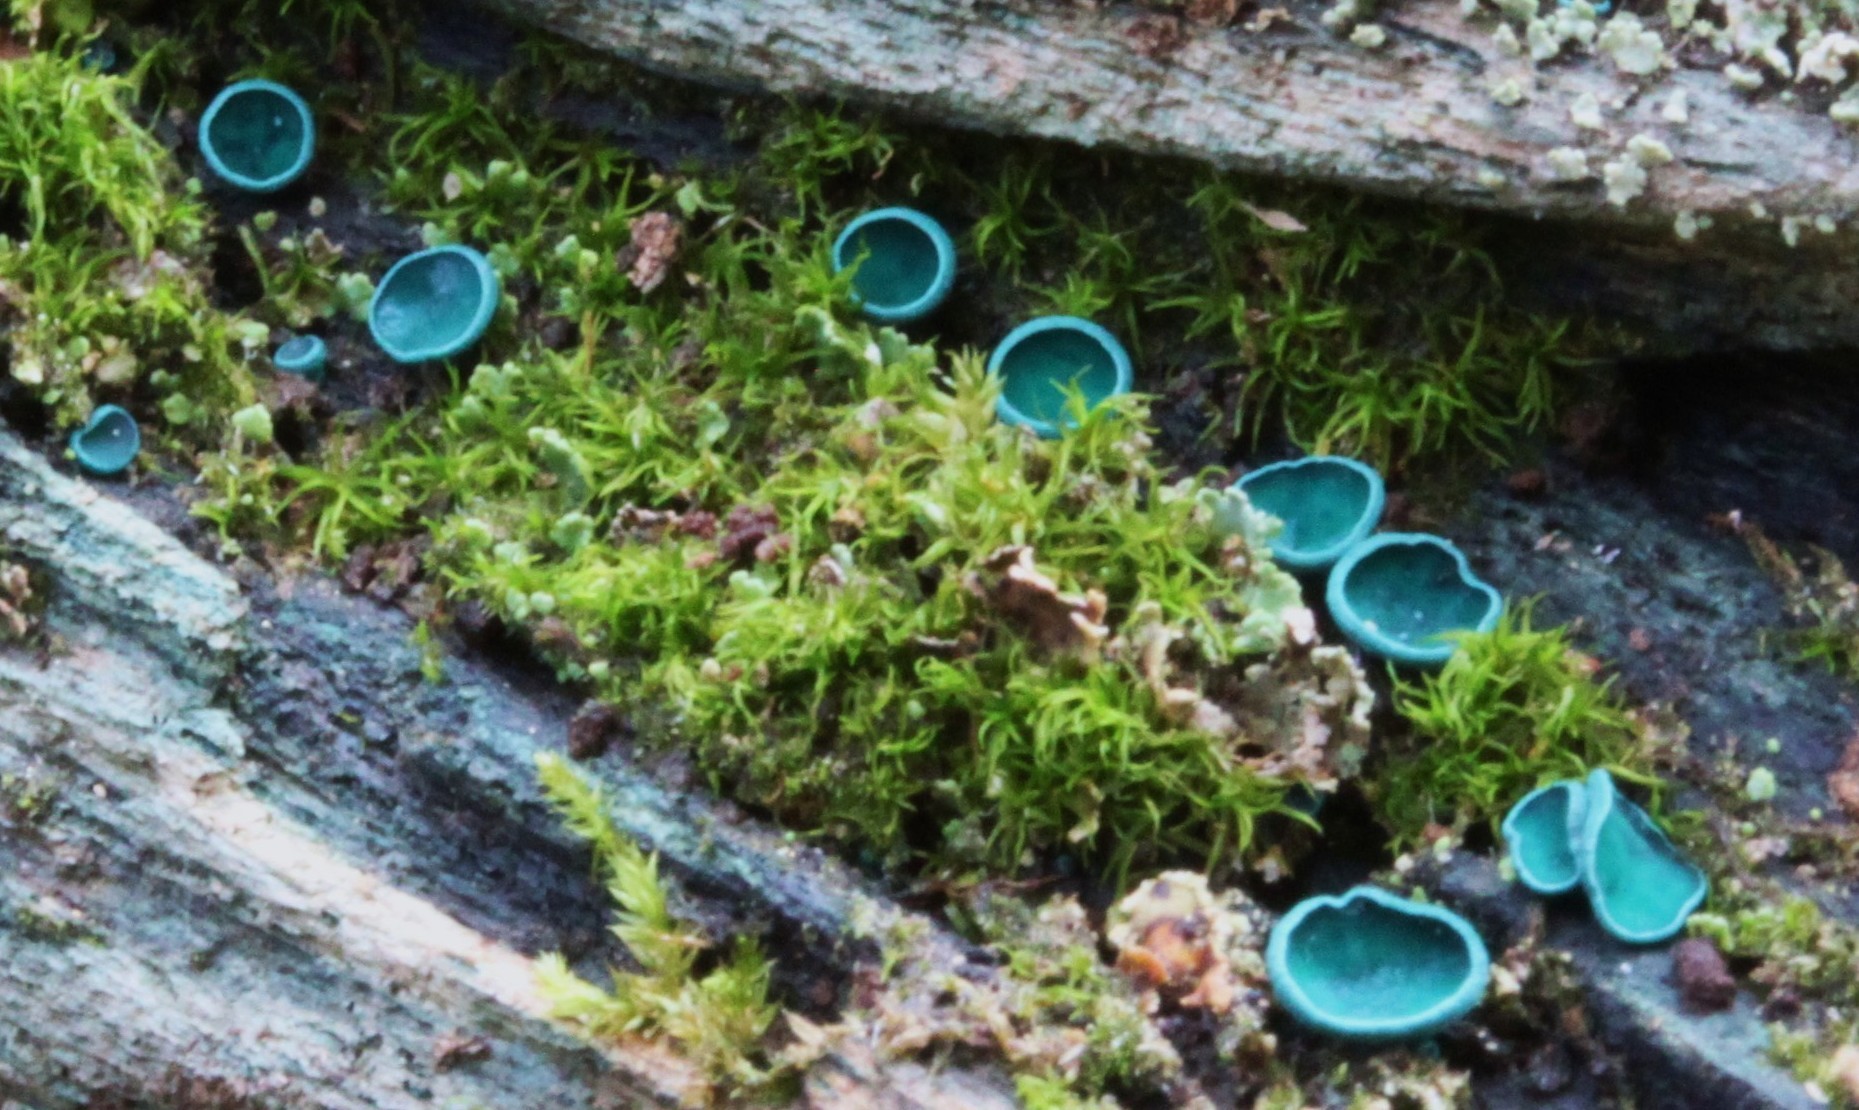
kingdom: Fungi
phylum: Ascomycota
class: Leotiomycetes
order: Helotiales
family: Chlorociboriaceae
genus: Chlorociboria
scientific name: Chlorociboria
